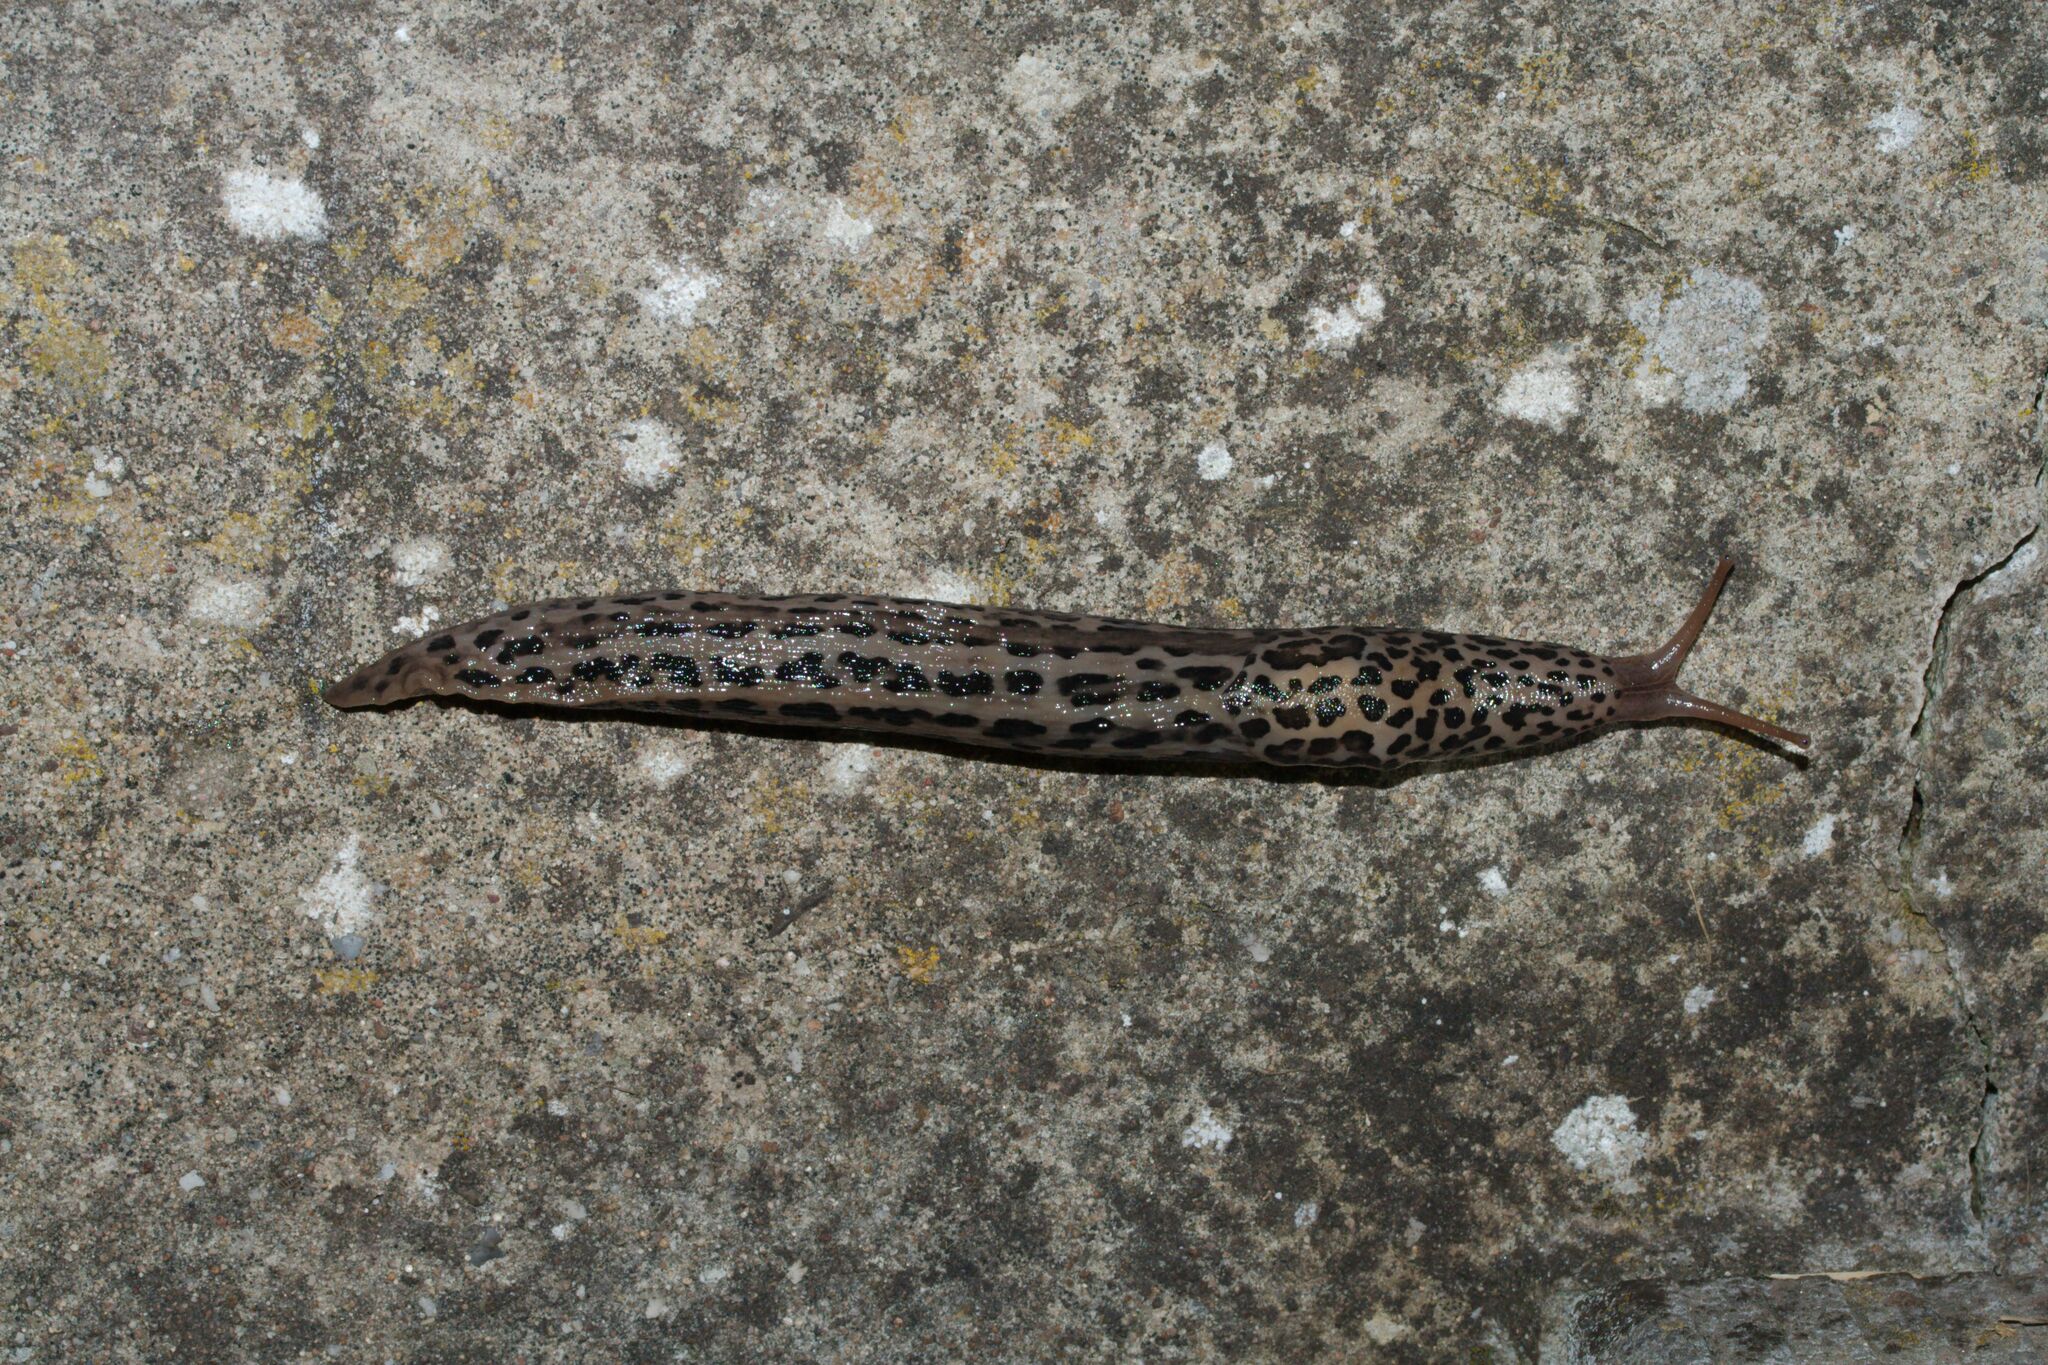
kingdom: Animalia
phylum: Mollusca
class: Gastropoda
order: Stylommatophora
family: Limacidae
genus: Limax
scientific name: Limax maximus
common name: Great grey slug
